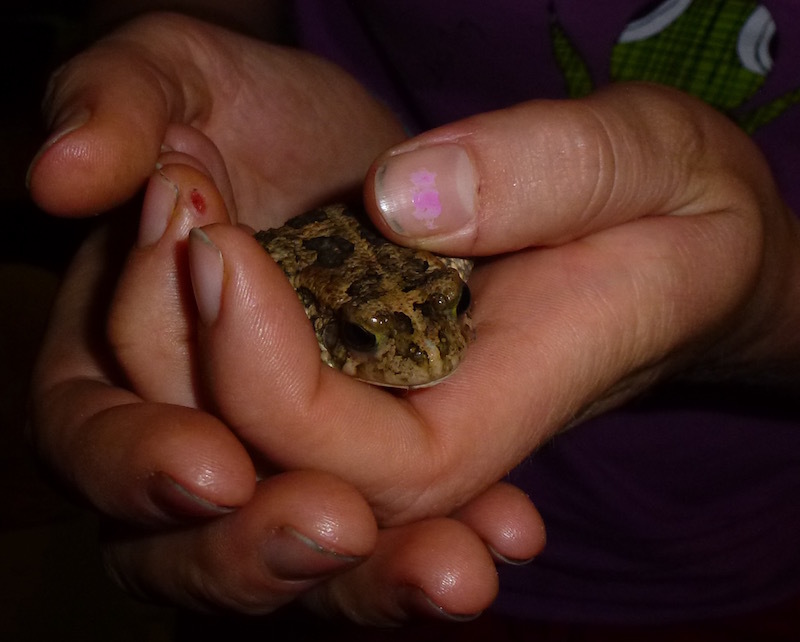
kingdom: Animalia
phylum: Chordata
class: Amphibia
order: Anura
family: Bufonidae
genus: Sclerophrys
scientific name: Sclerophrys gutturalis
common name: African common toad
